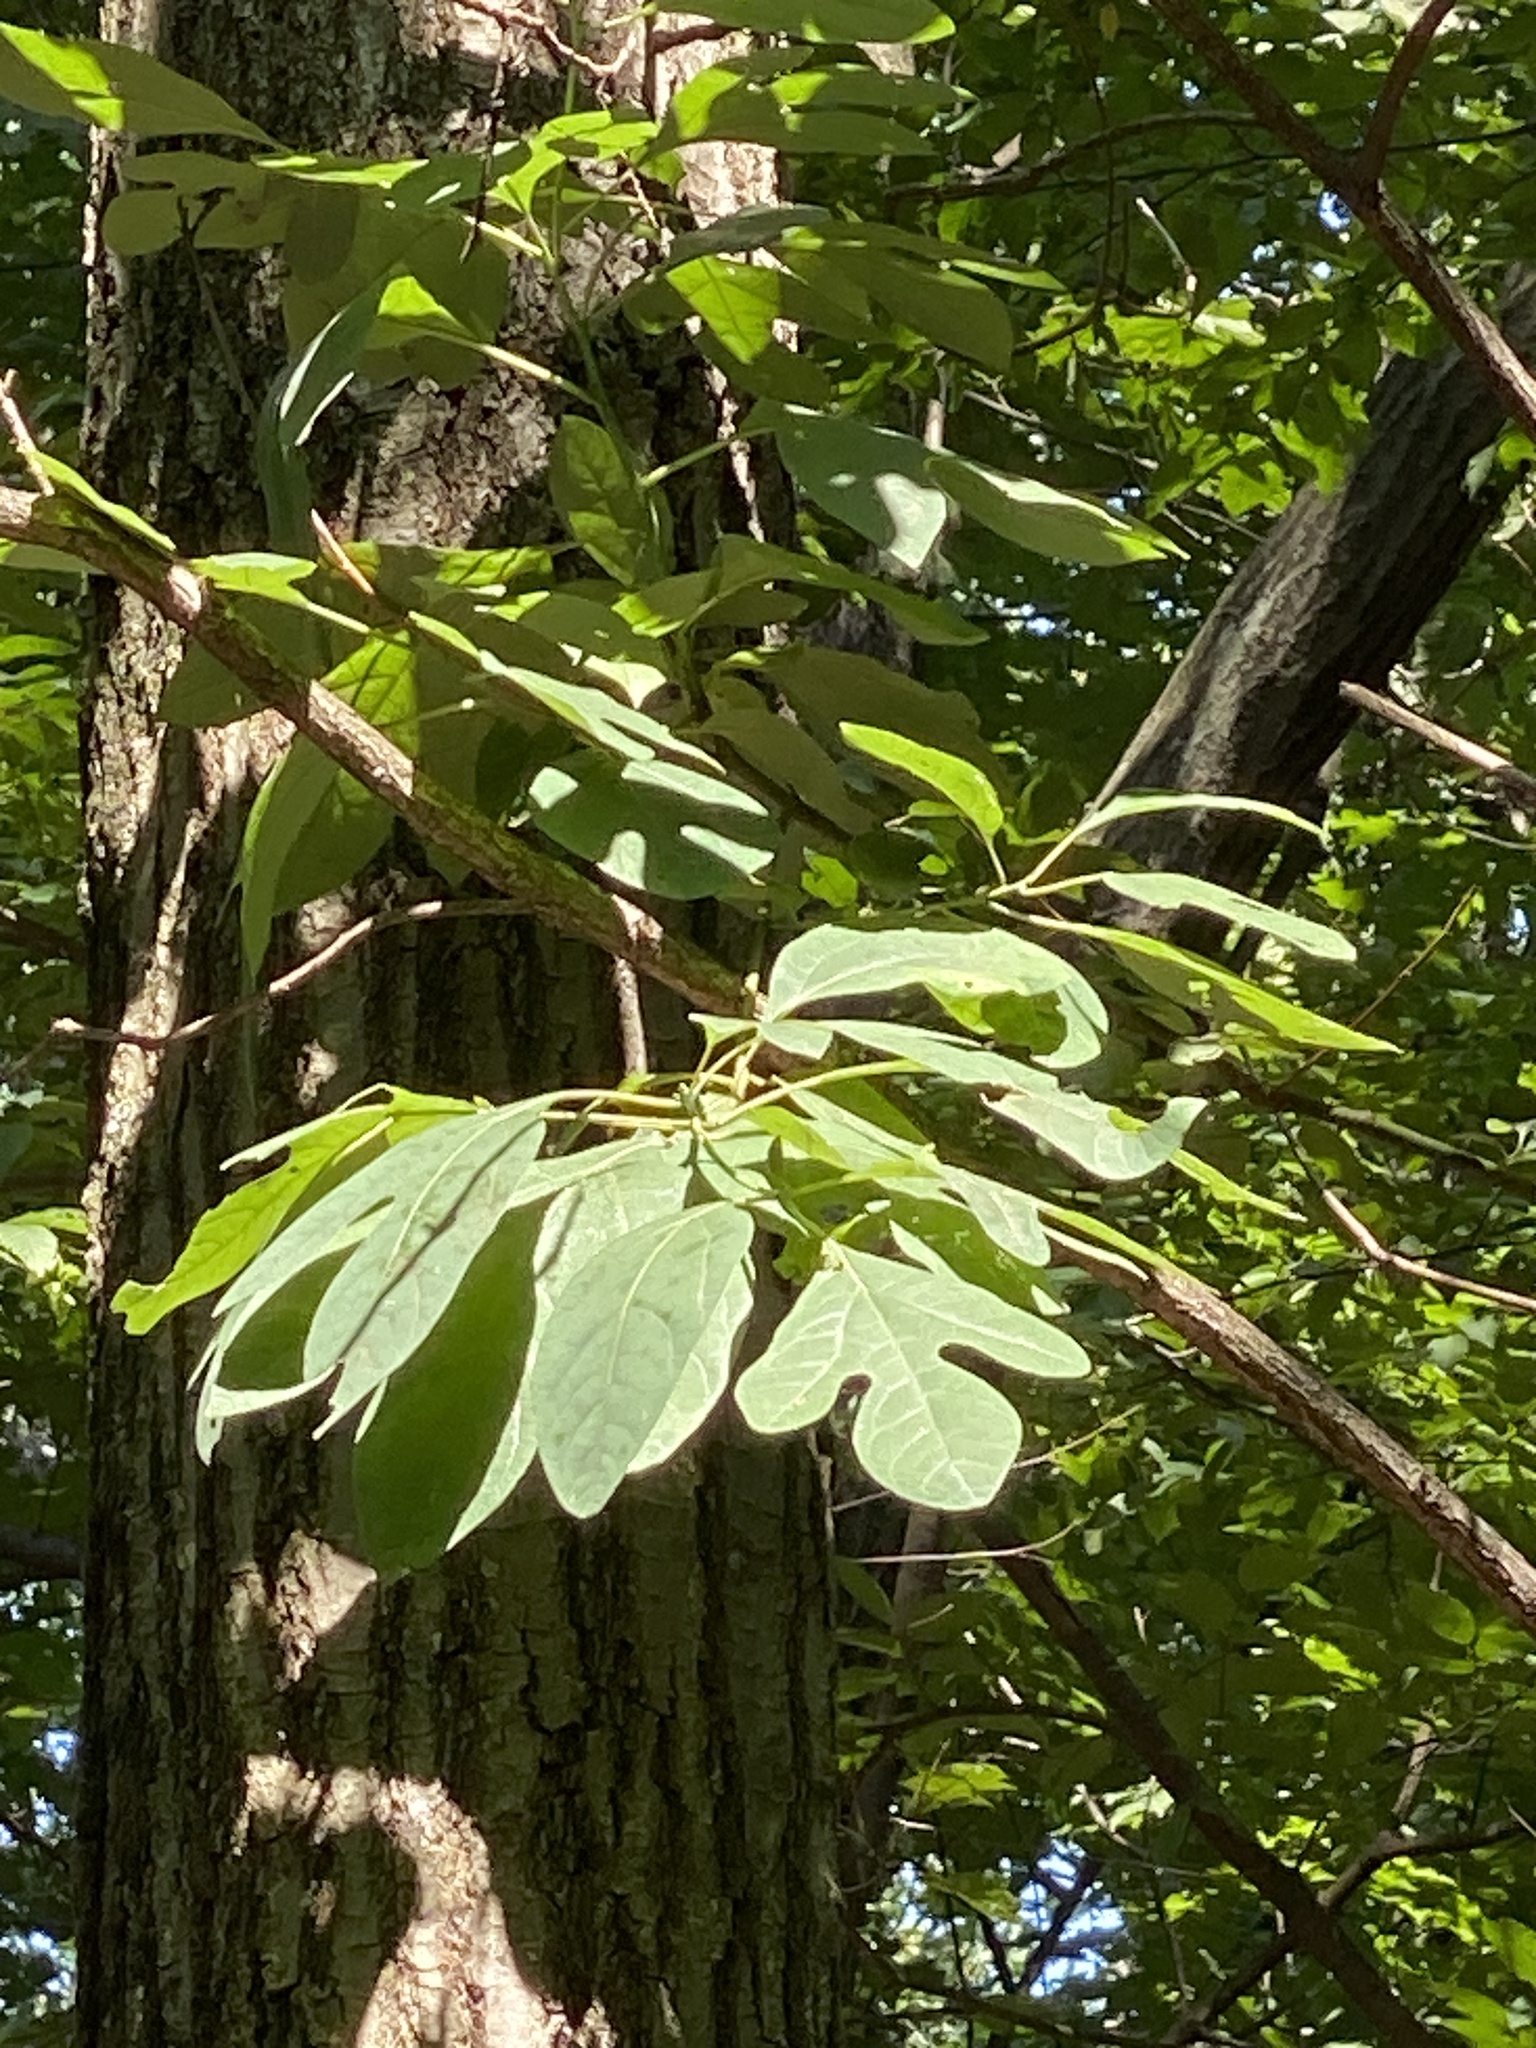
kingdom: Plantae
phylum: Tracheophyta
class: Magnoliopsida
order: Laurales
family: Lauraceae
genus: Sassafras
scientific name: Sassafras albidum
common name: Sassafras
